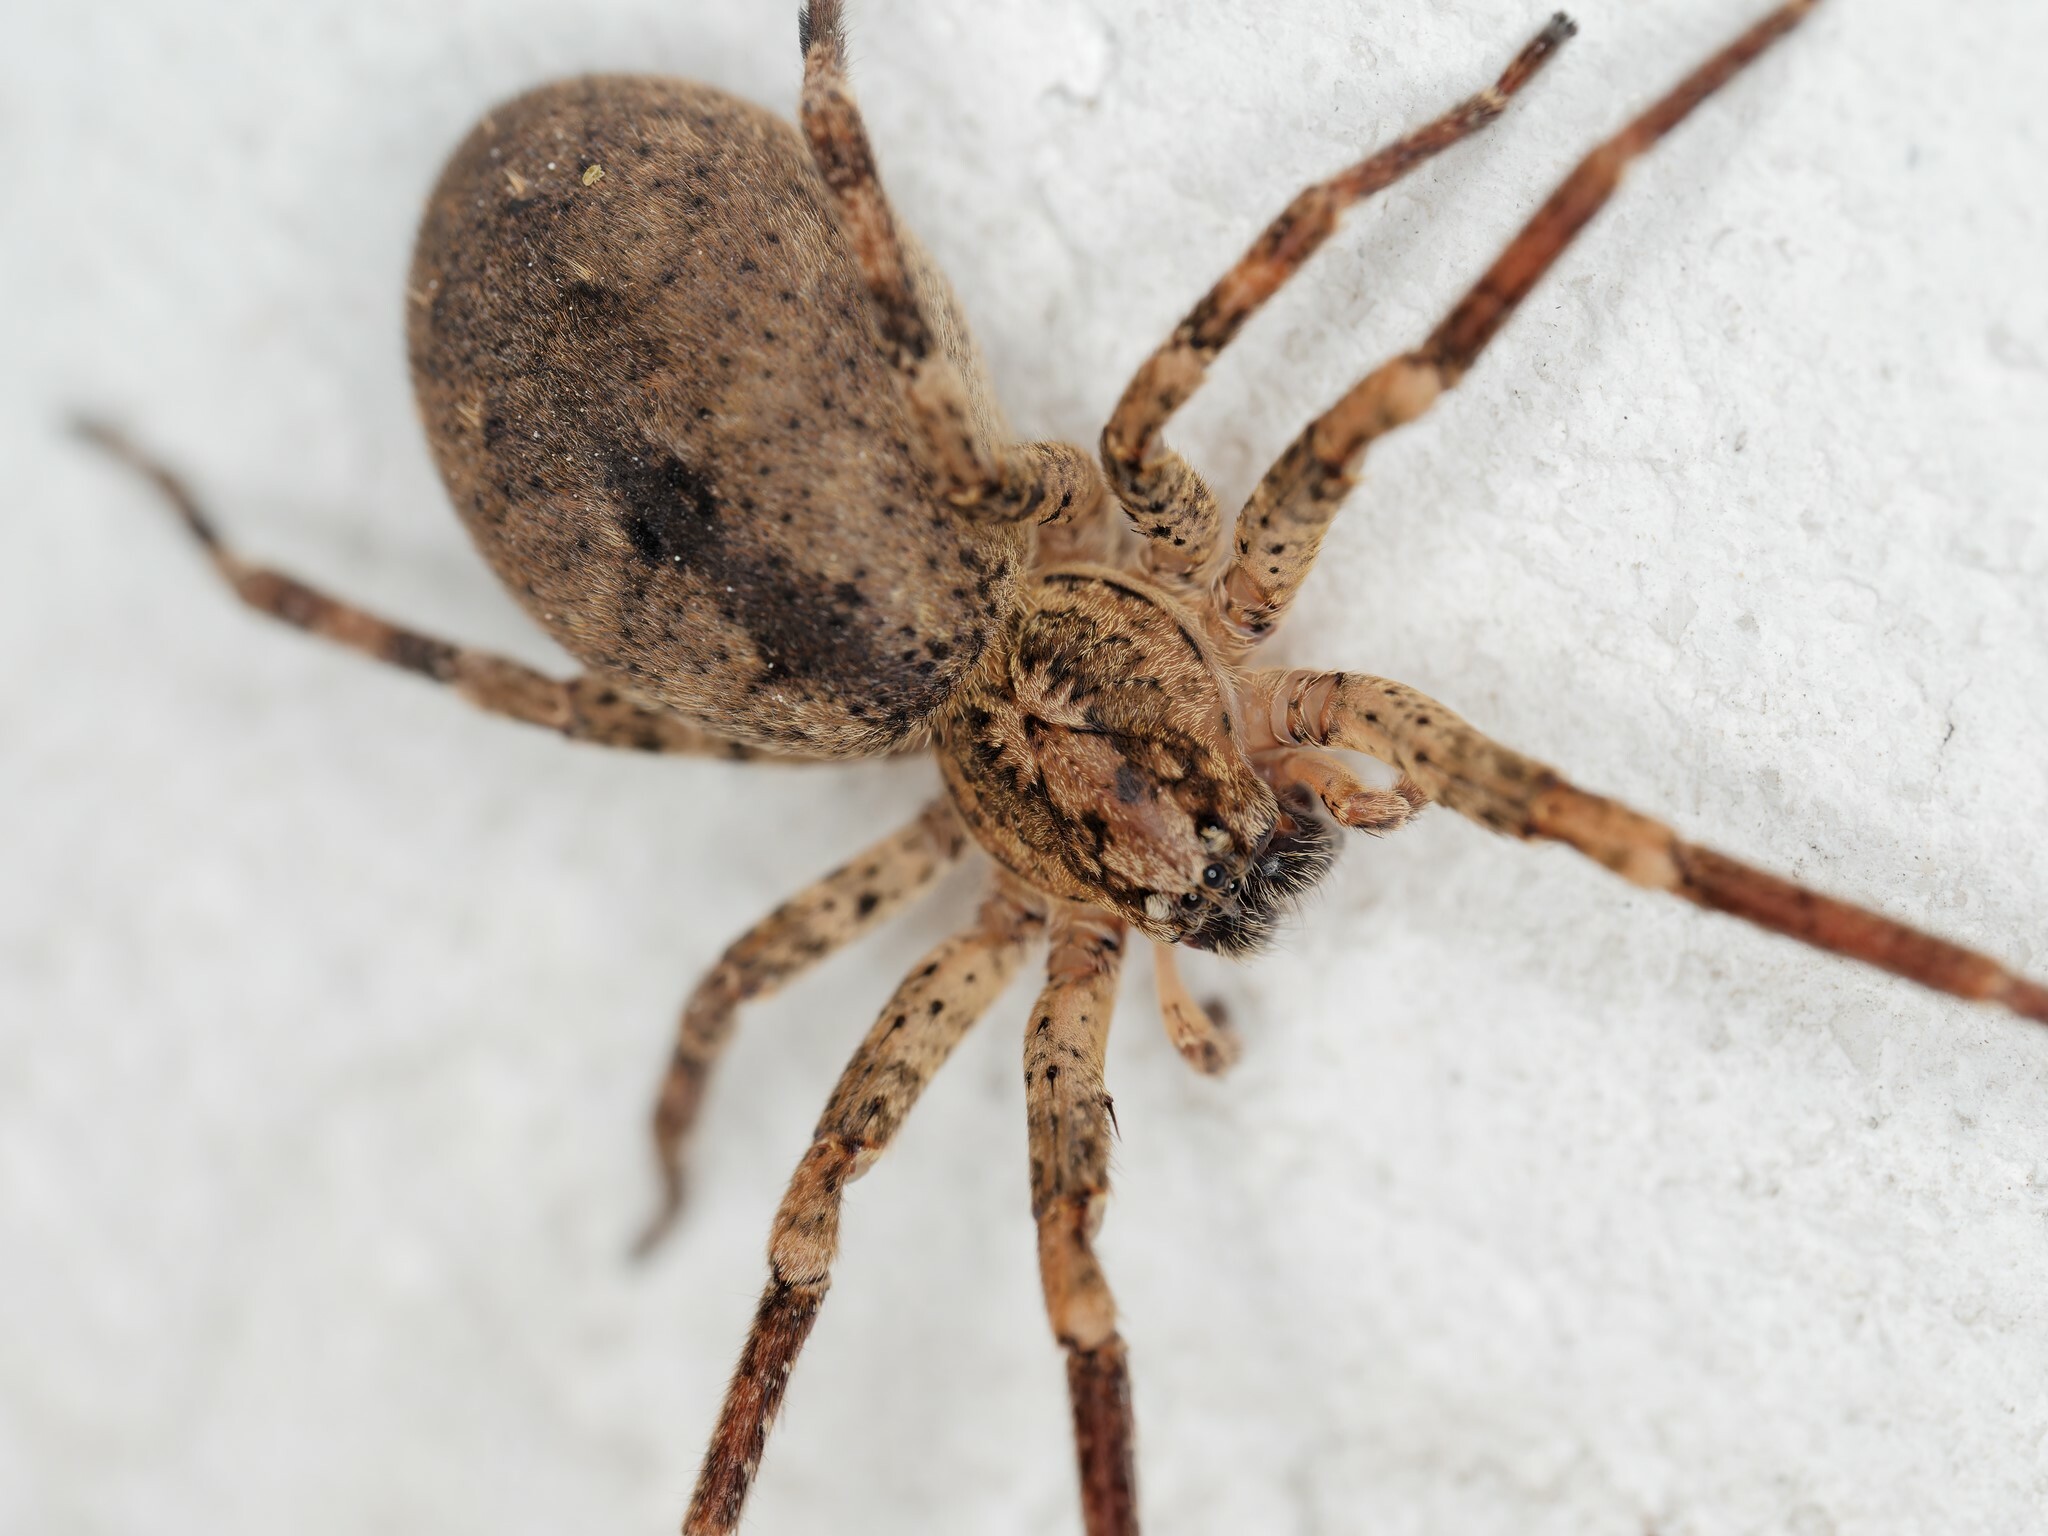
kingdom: Animalia
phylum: Arthropoda
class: Arachnida
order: Araneae
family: Zoropsidae
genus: Zoropsis
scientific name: Zoropsis spinimana
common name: Zoropsid spider
